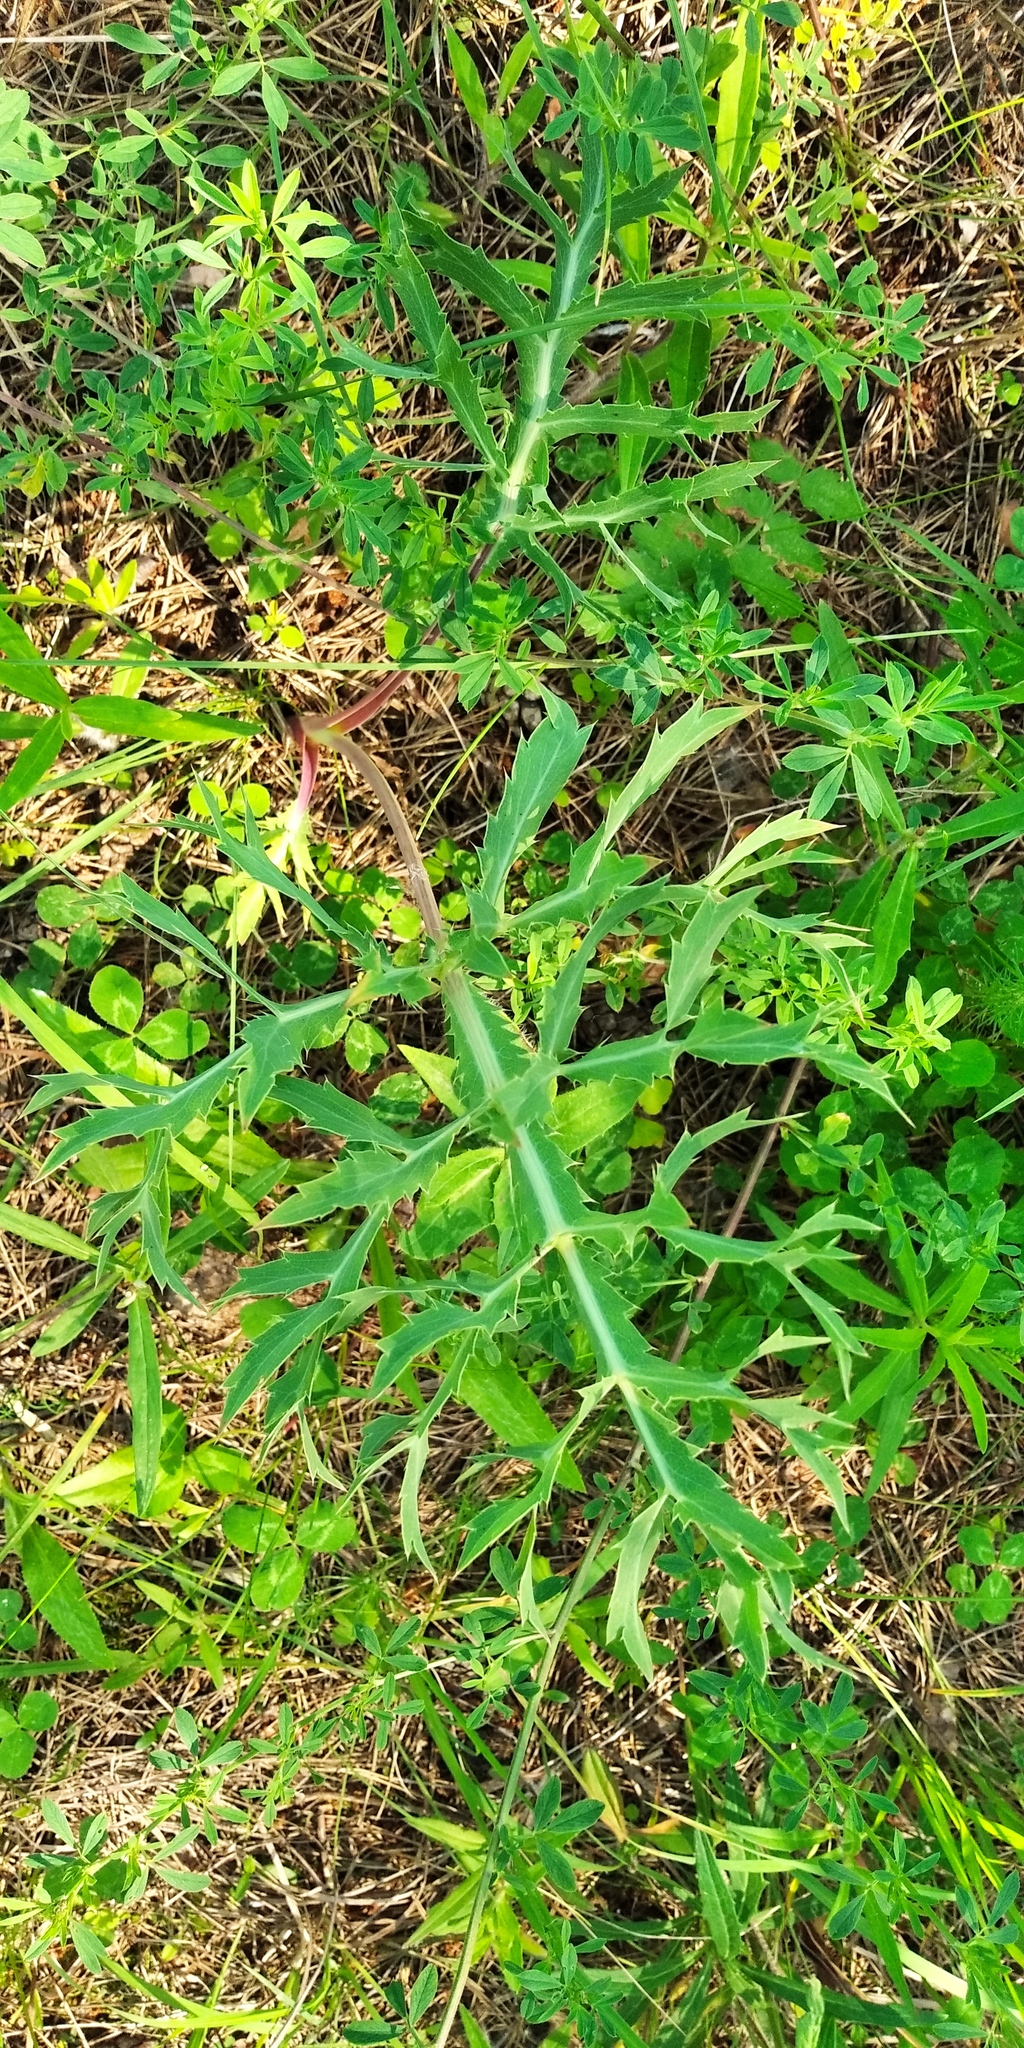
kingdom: Plantae
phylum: Tracheophyta
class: Magnoliopsida
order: Apiales
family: Apiaceae
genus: Eryngium
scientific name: Eryngium campestre
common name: Field eryngo
